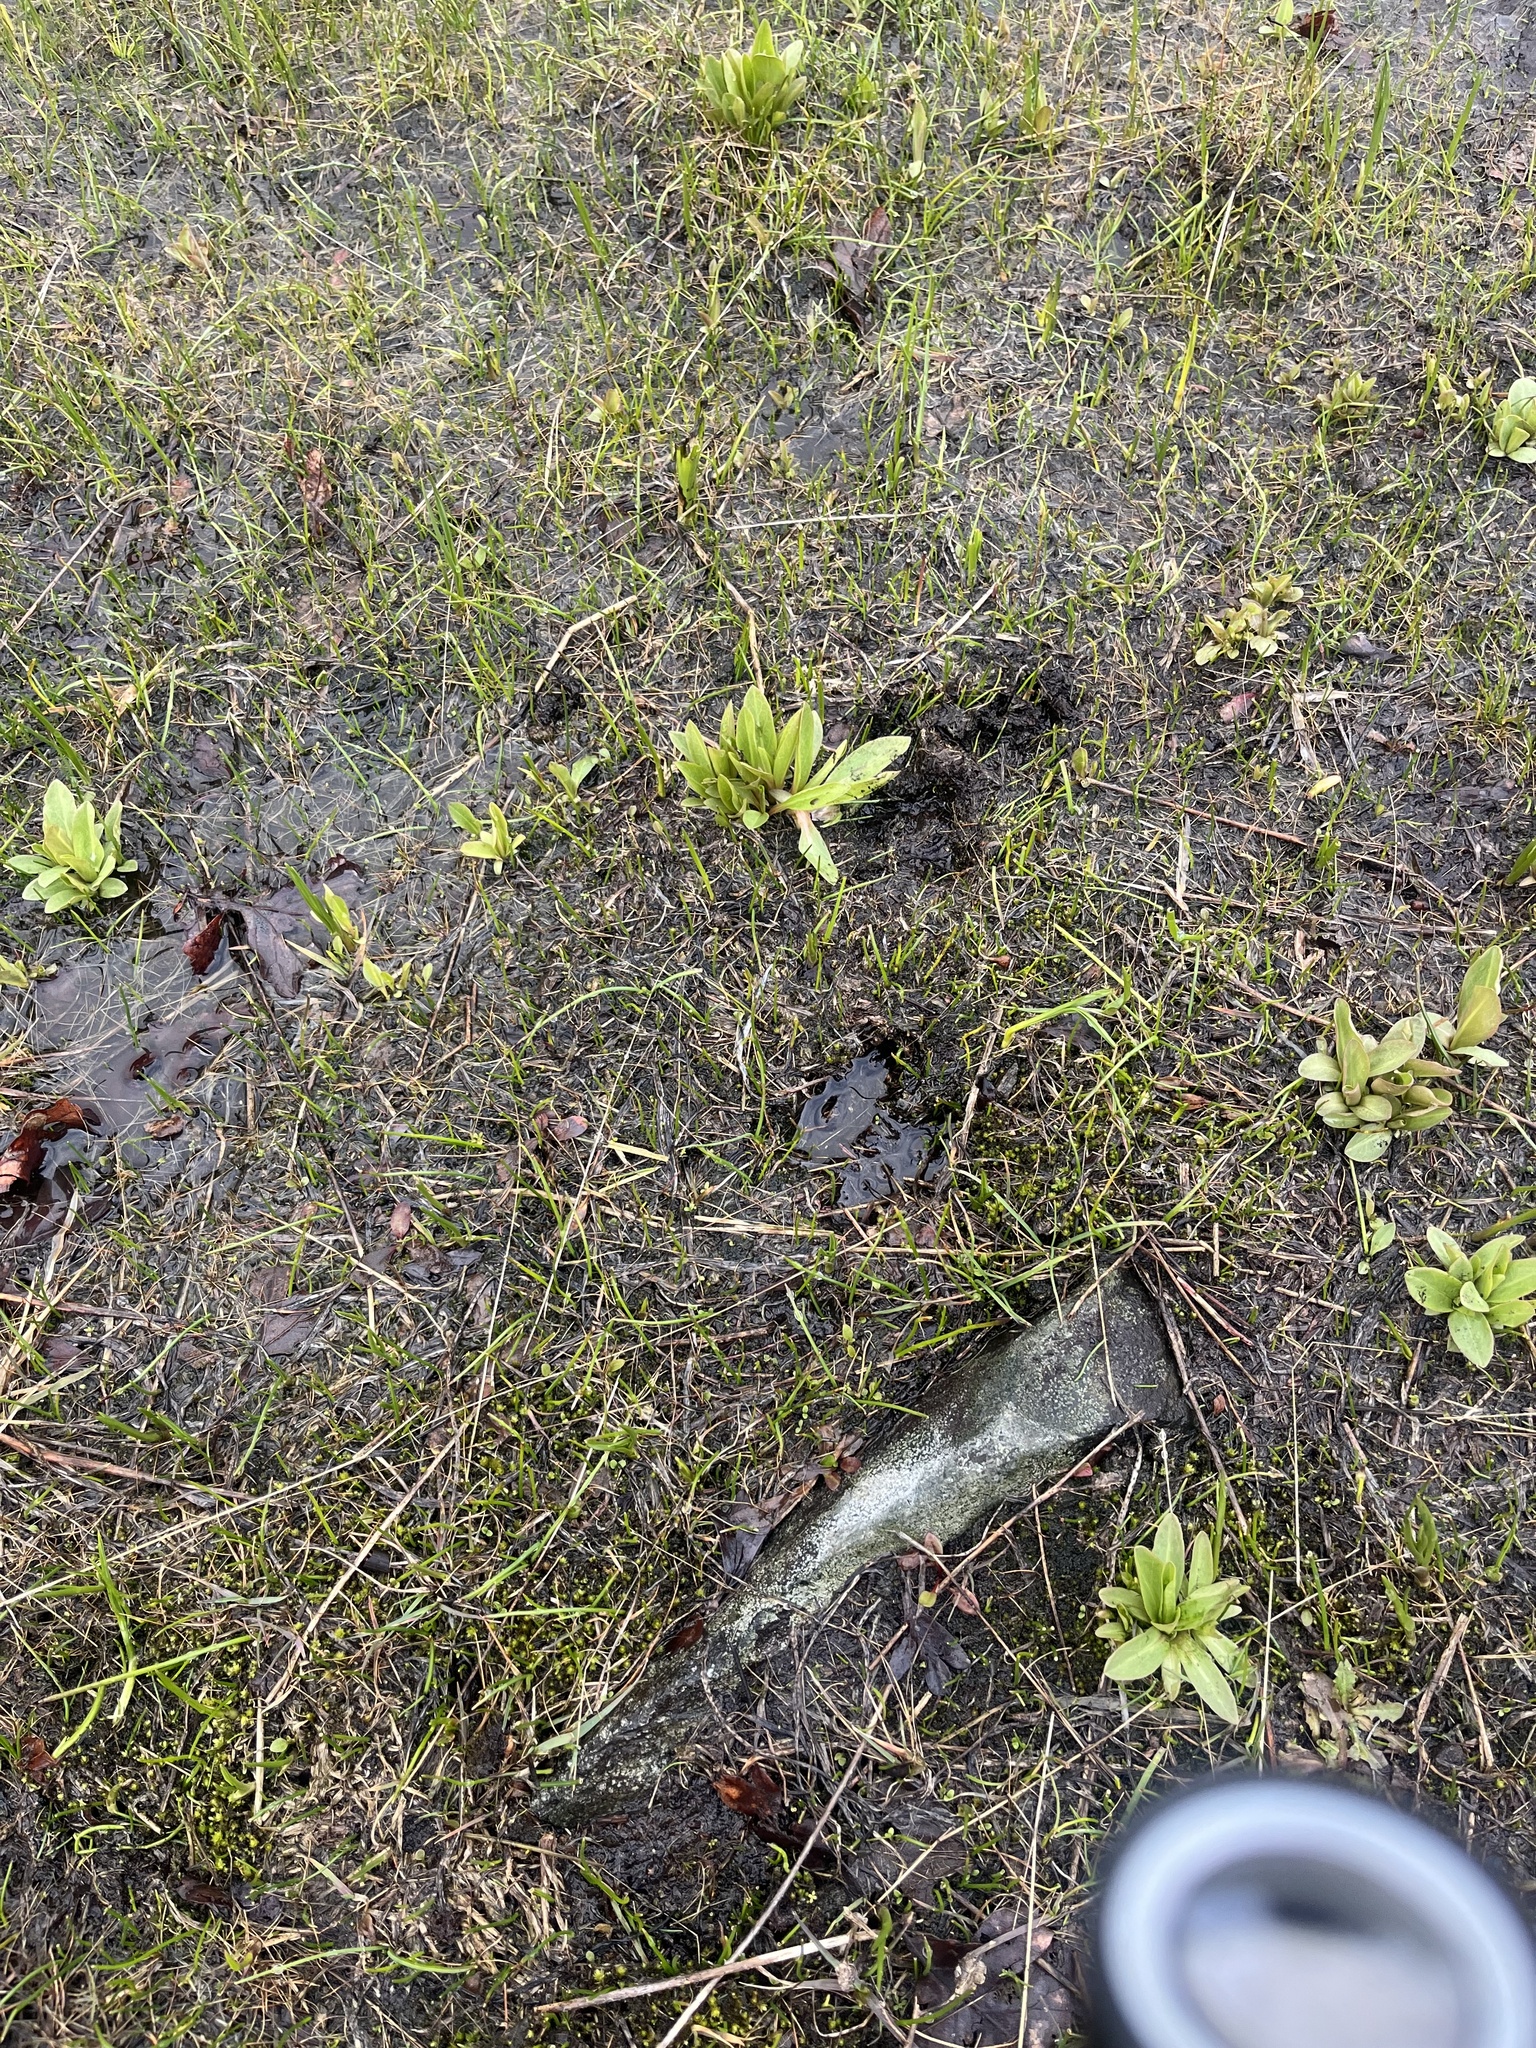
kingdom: Plantae
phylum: Tracheophyta
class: Magnoliopsida
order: Ericales
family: Primulaceae
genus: Dodecatheon
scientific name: Dodecatheon pulchellum
